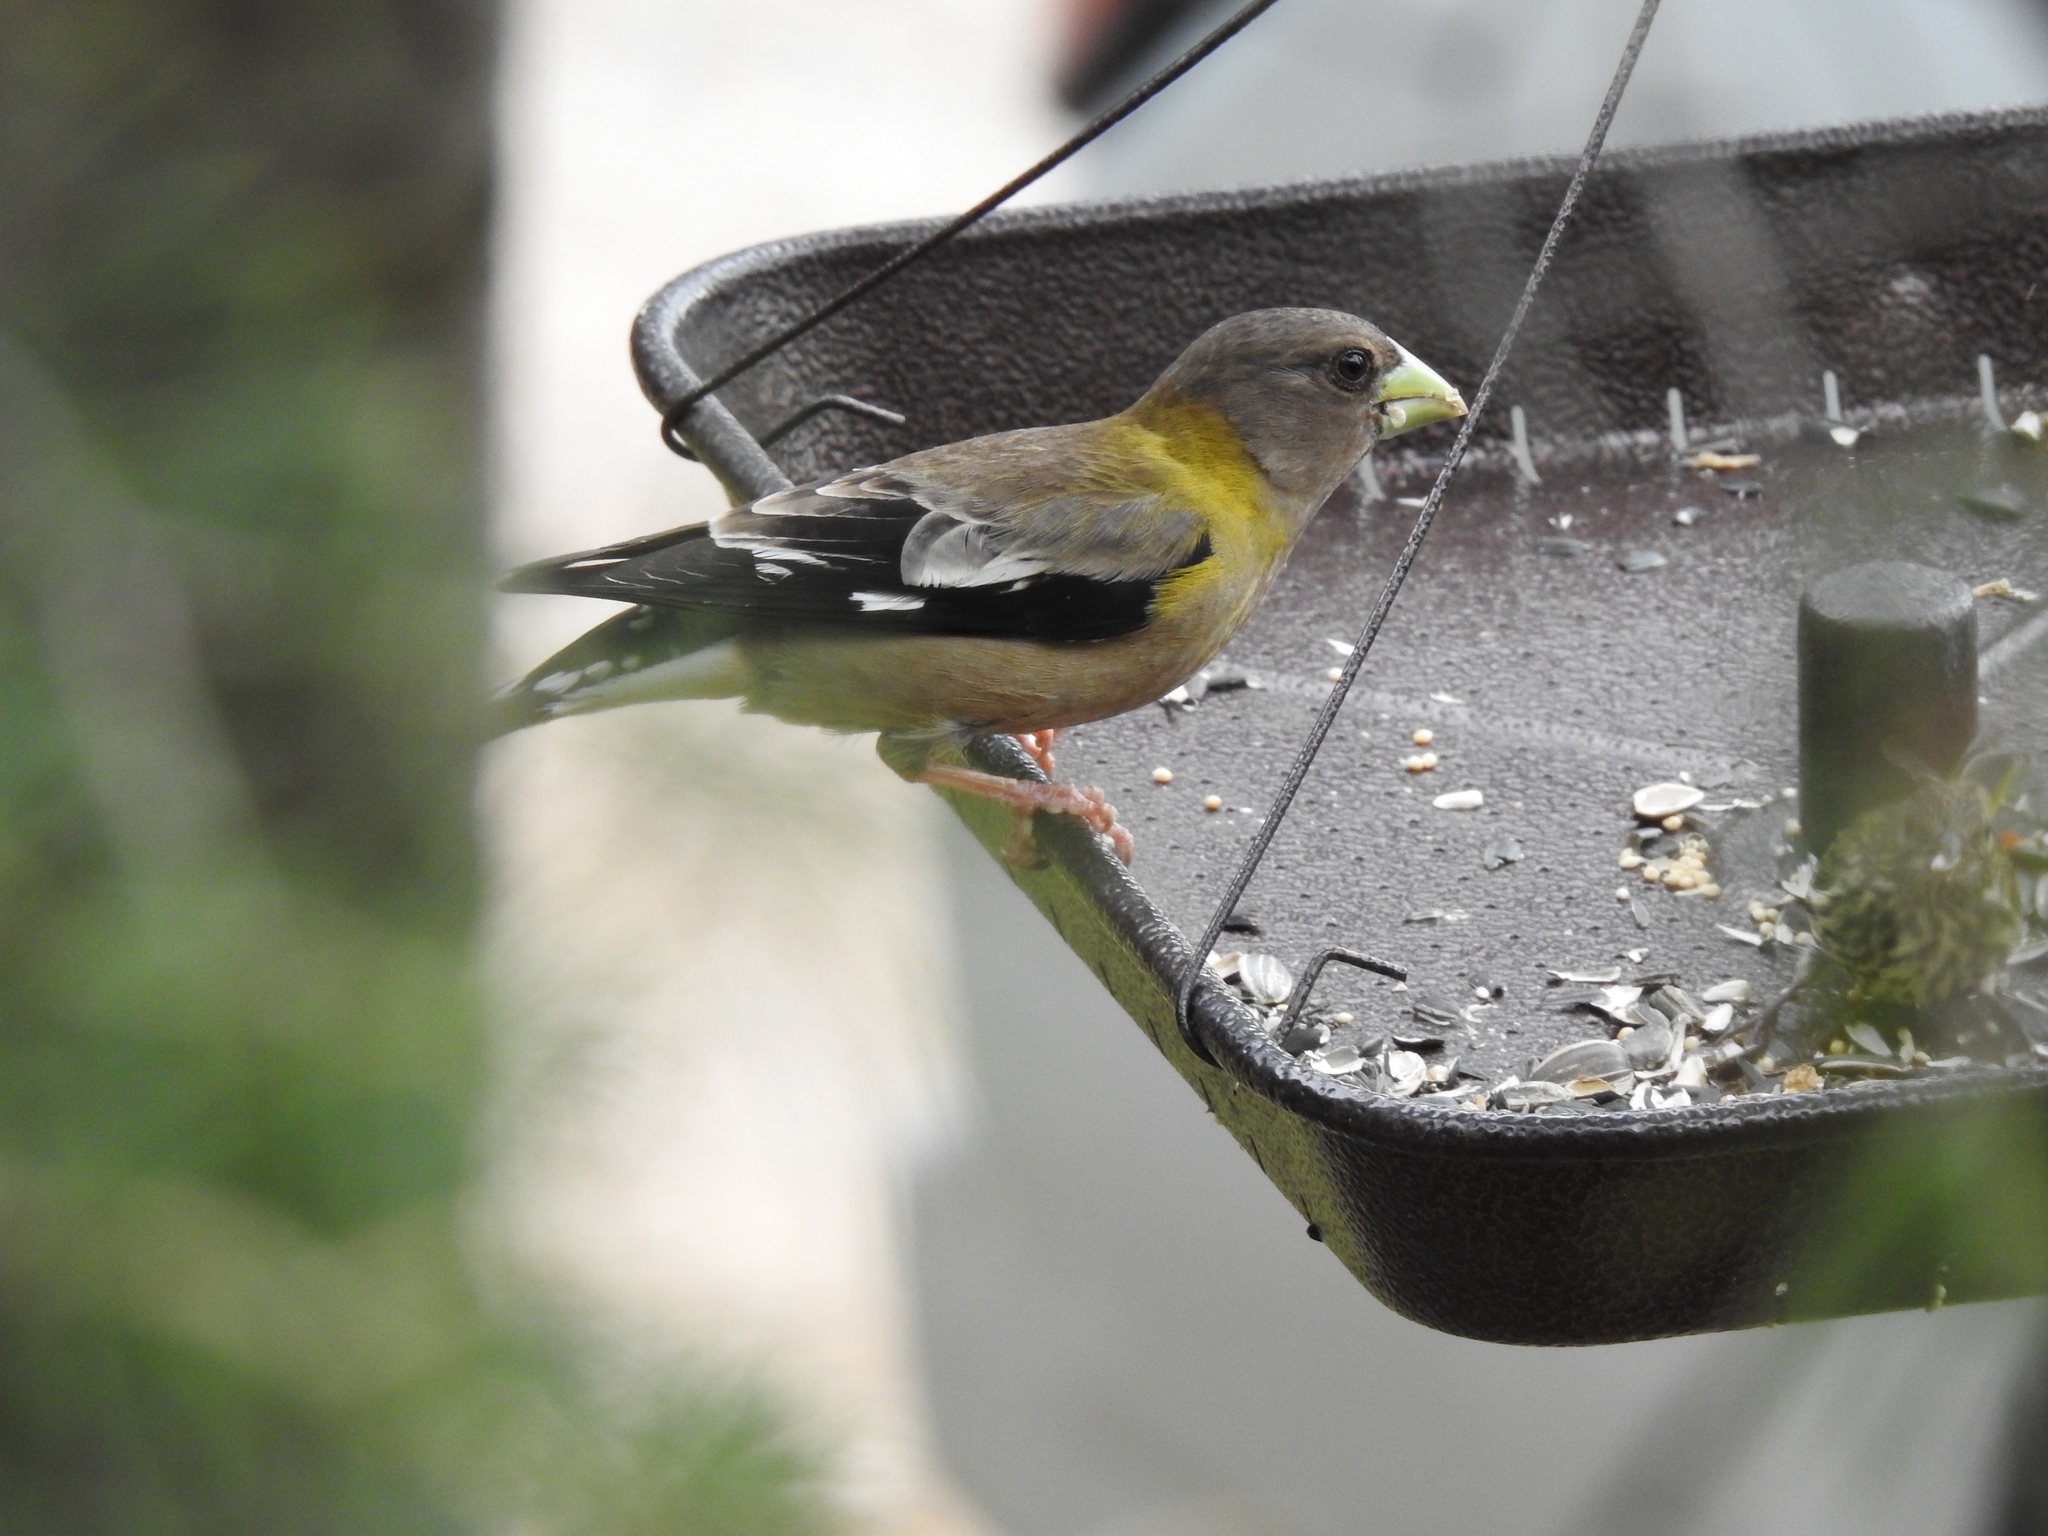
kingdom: Animalia
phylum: Chordata
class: Aves
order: Passeriformes
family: Fringillidae
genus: Hesperiphona
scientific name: Hesperiphona vespertina
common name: Evening grosbeak
